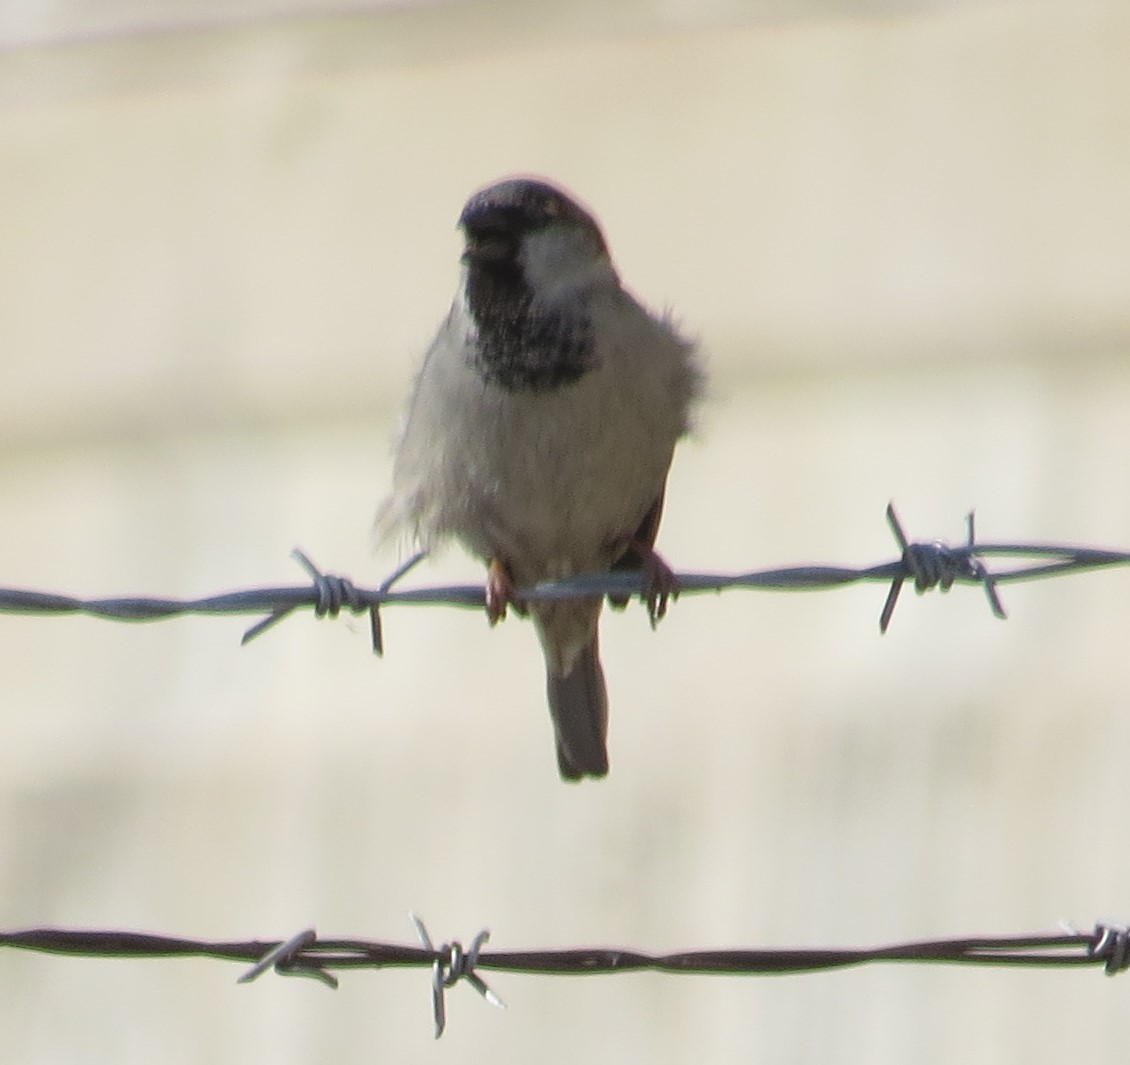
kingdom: Animalia
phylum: Chordata
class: Aves
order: Passeriformes
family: Passeridae
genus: Passer
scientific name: Passer domesticus
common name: House sparrow
